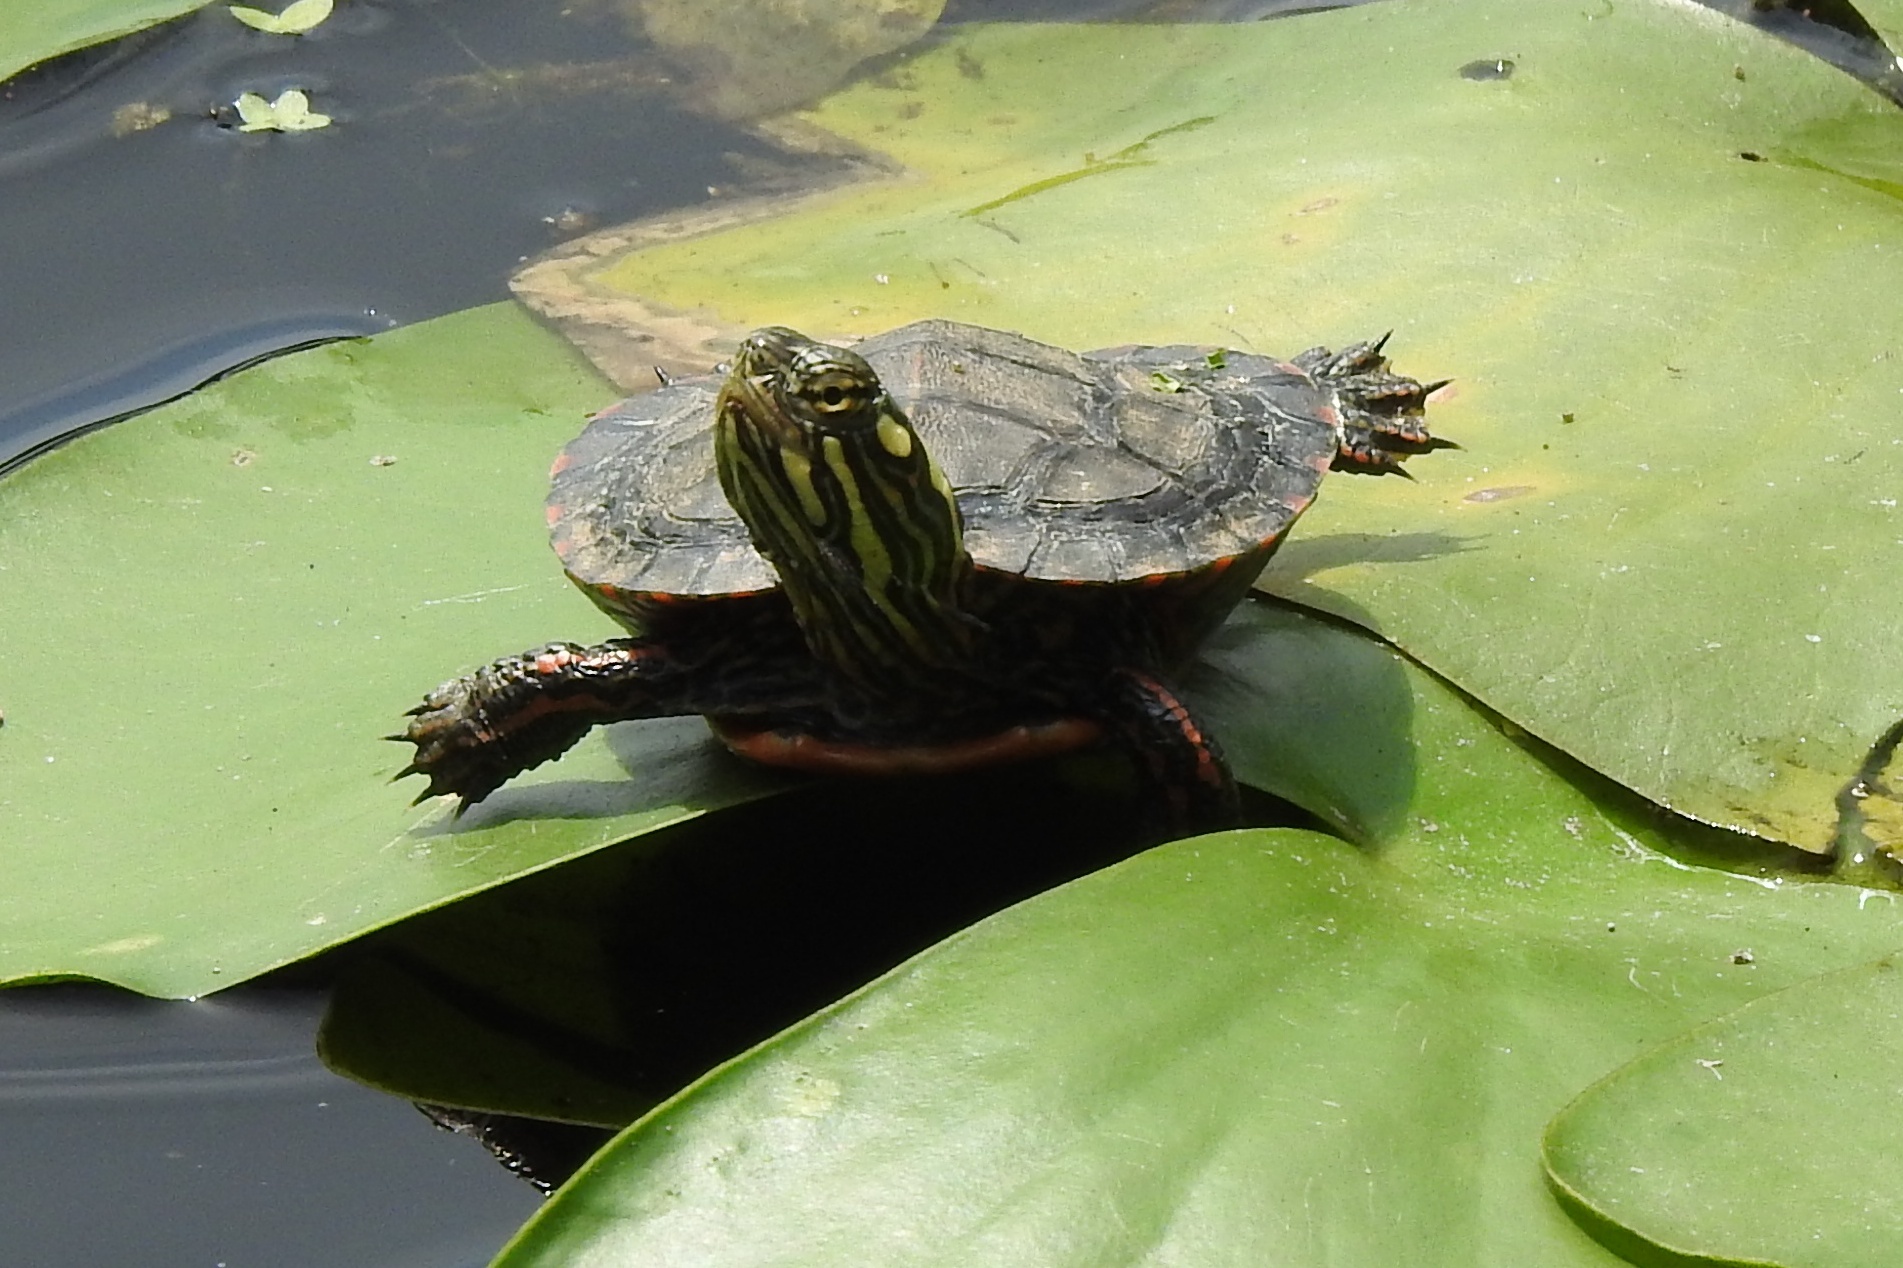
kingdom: Animalia
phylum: Chordata
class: Testudines
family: Emydidae
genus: Chrysemys
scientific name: Chrysemys picta
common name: Painted turtle
